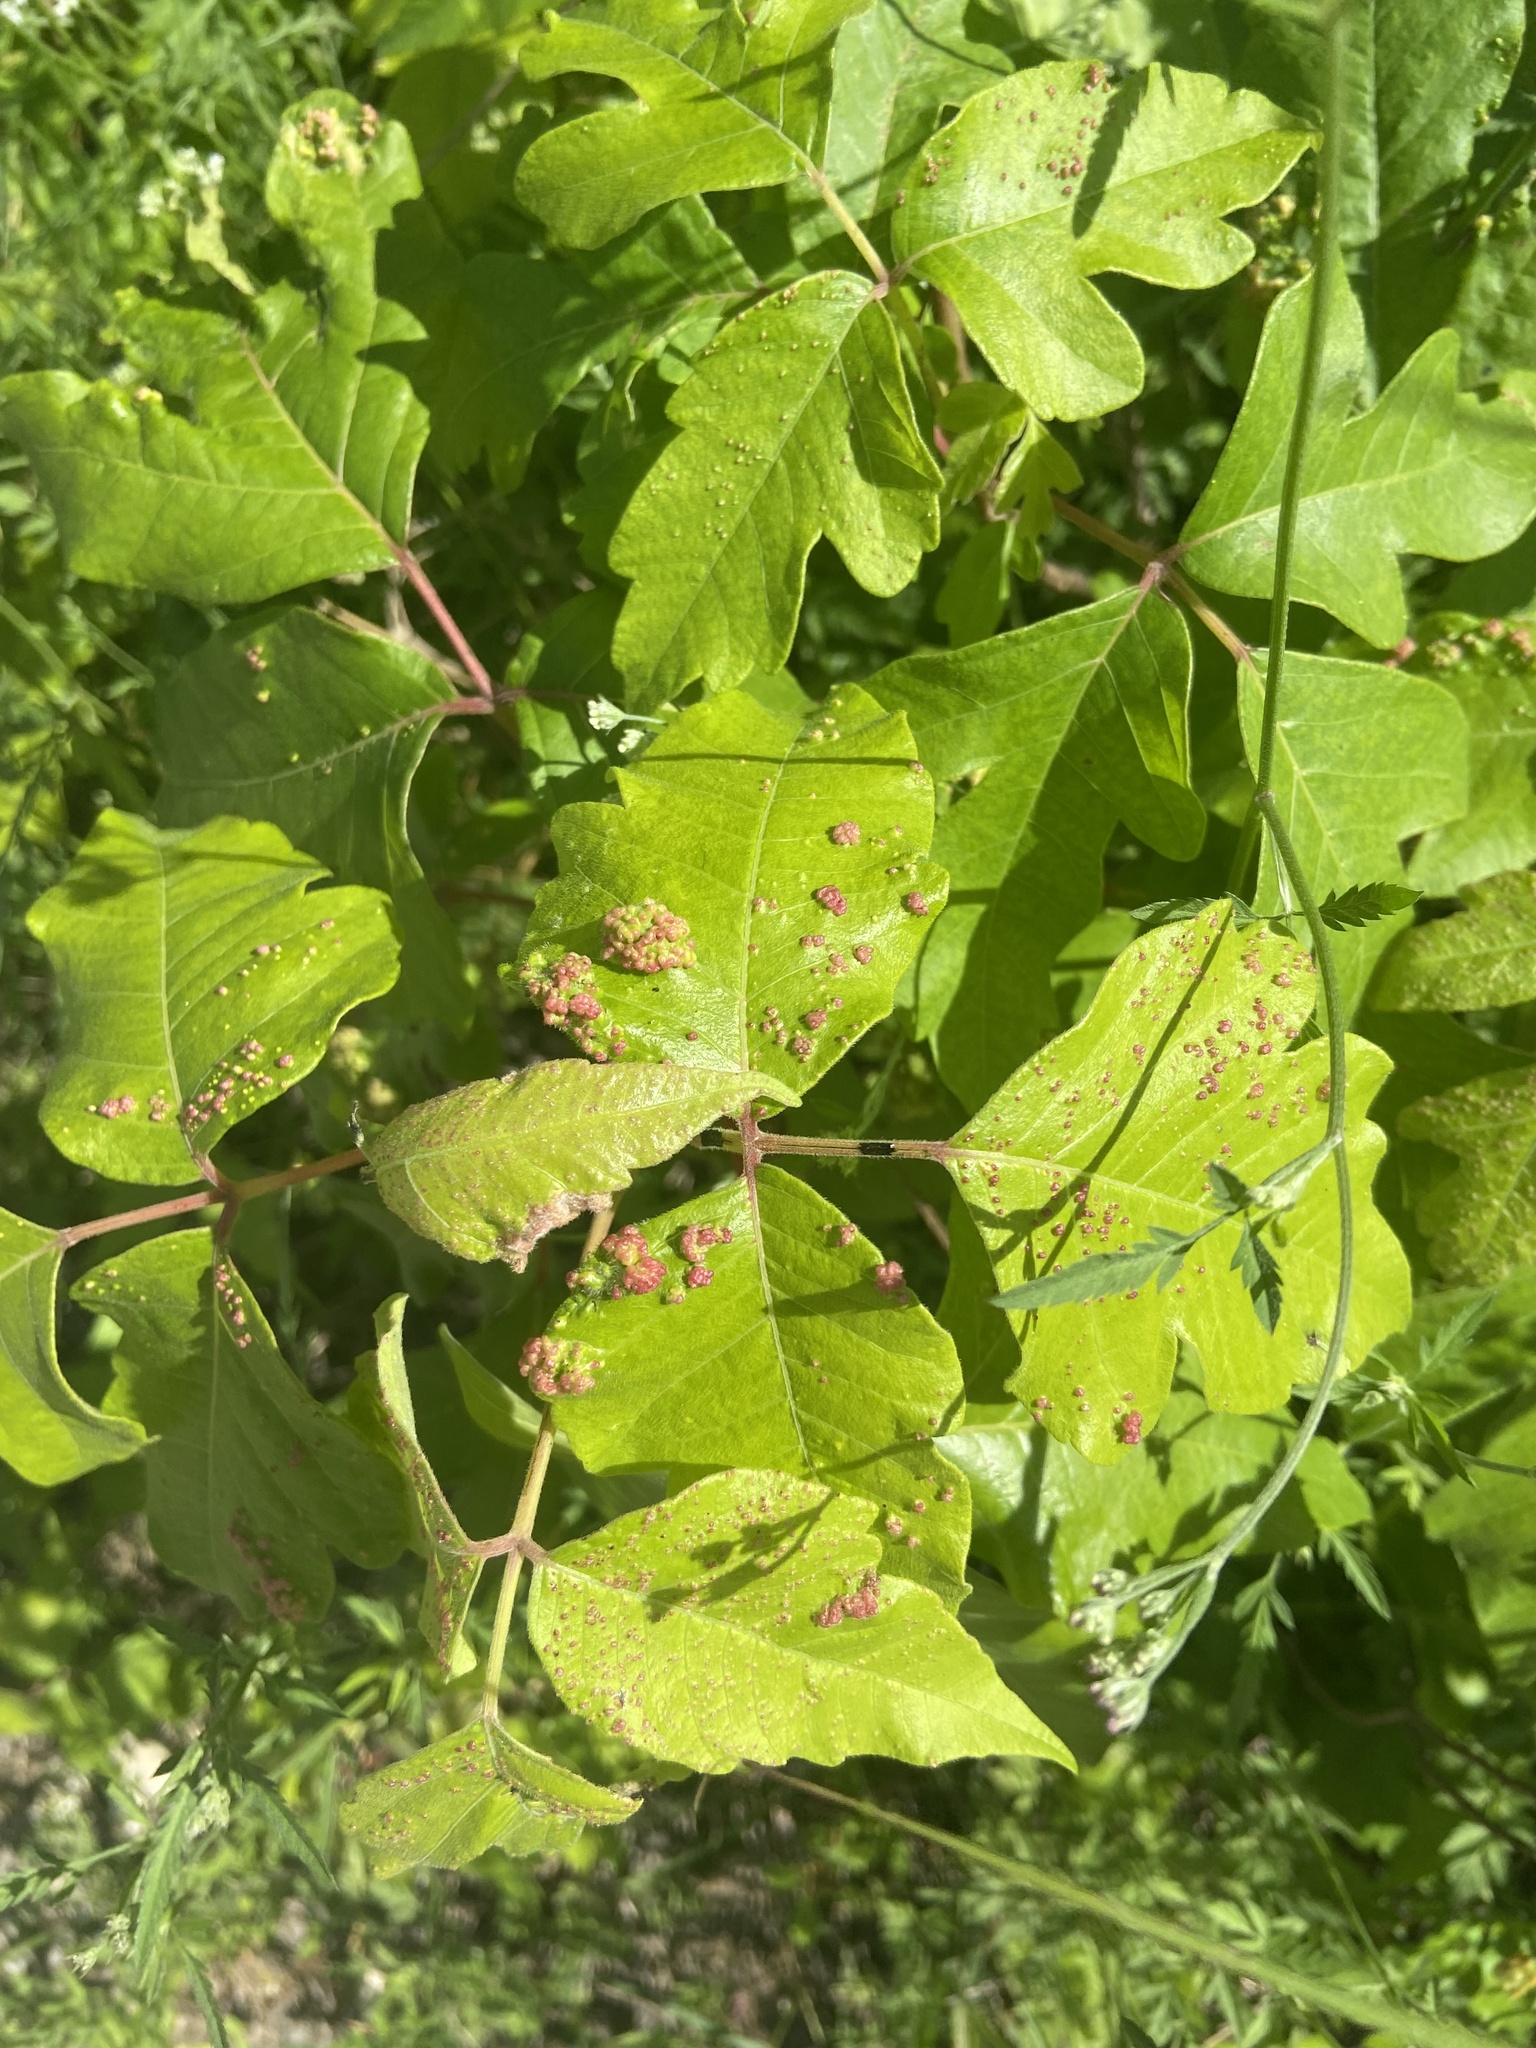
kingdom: Animalia
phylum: Arthropoda
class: Arachnida
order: Trombidiformes
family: Eriophyidae
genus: Aculops
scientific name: Aculops
